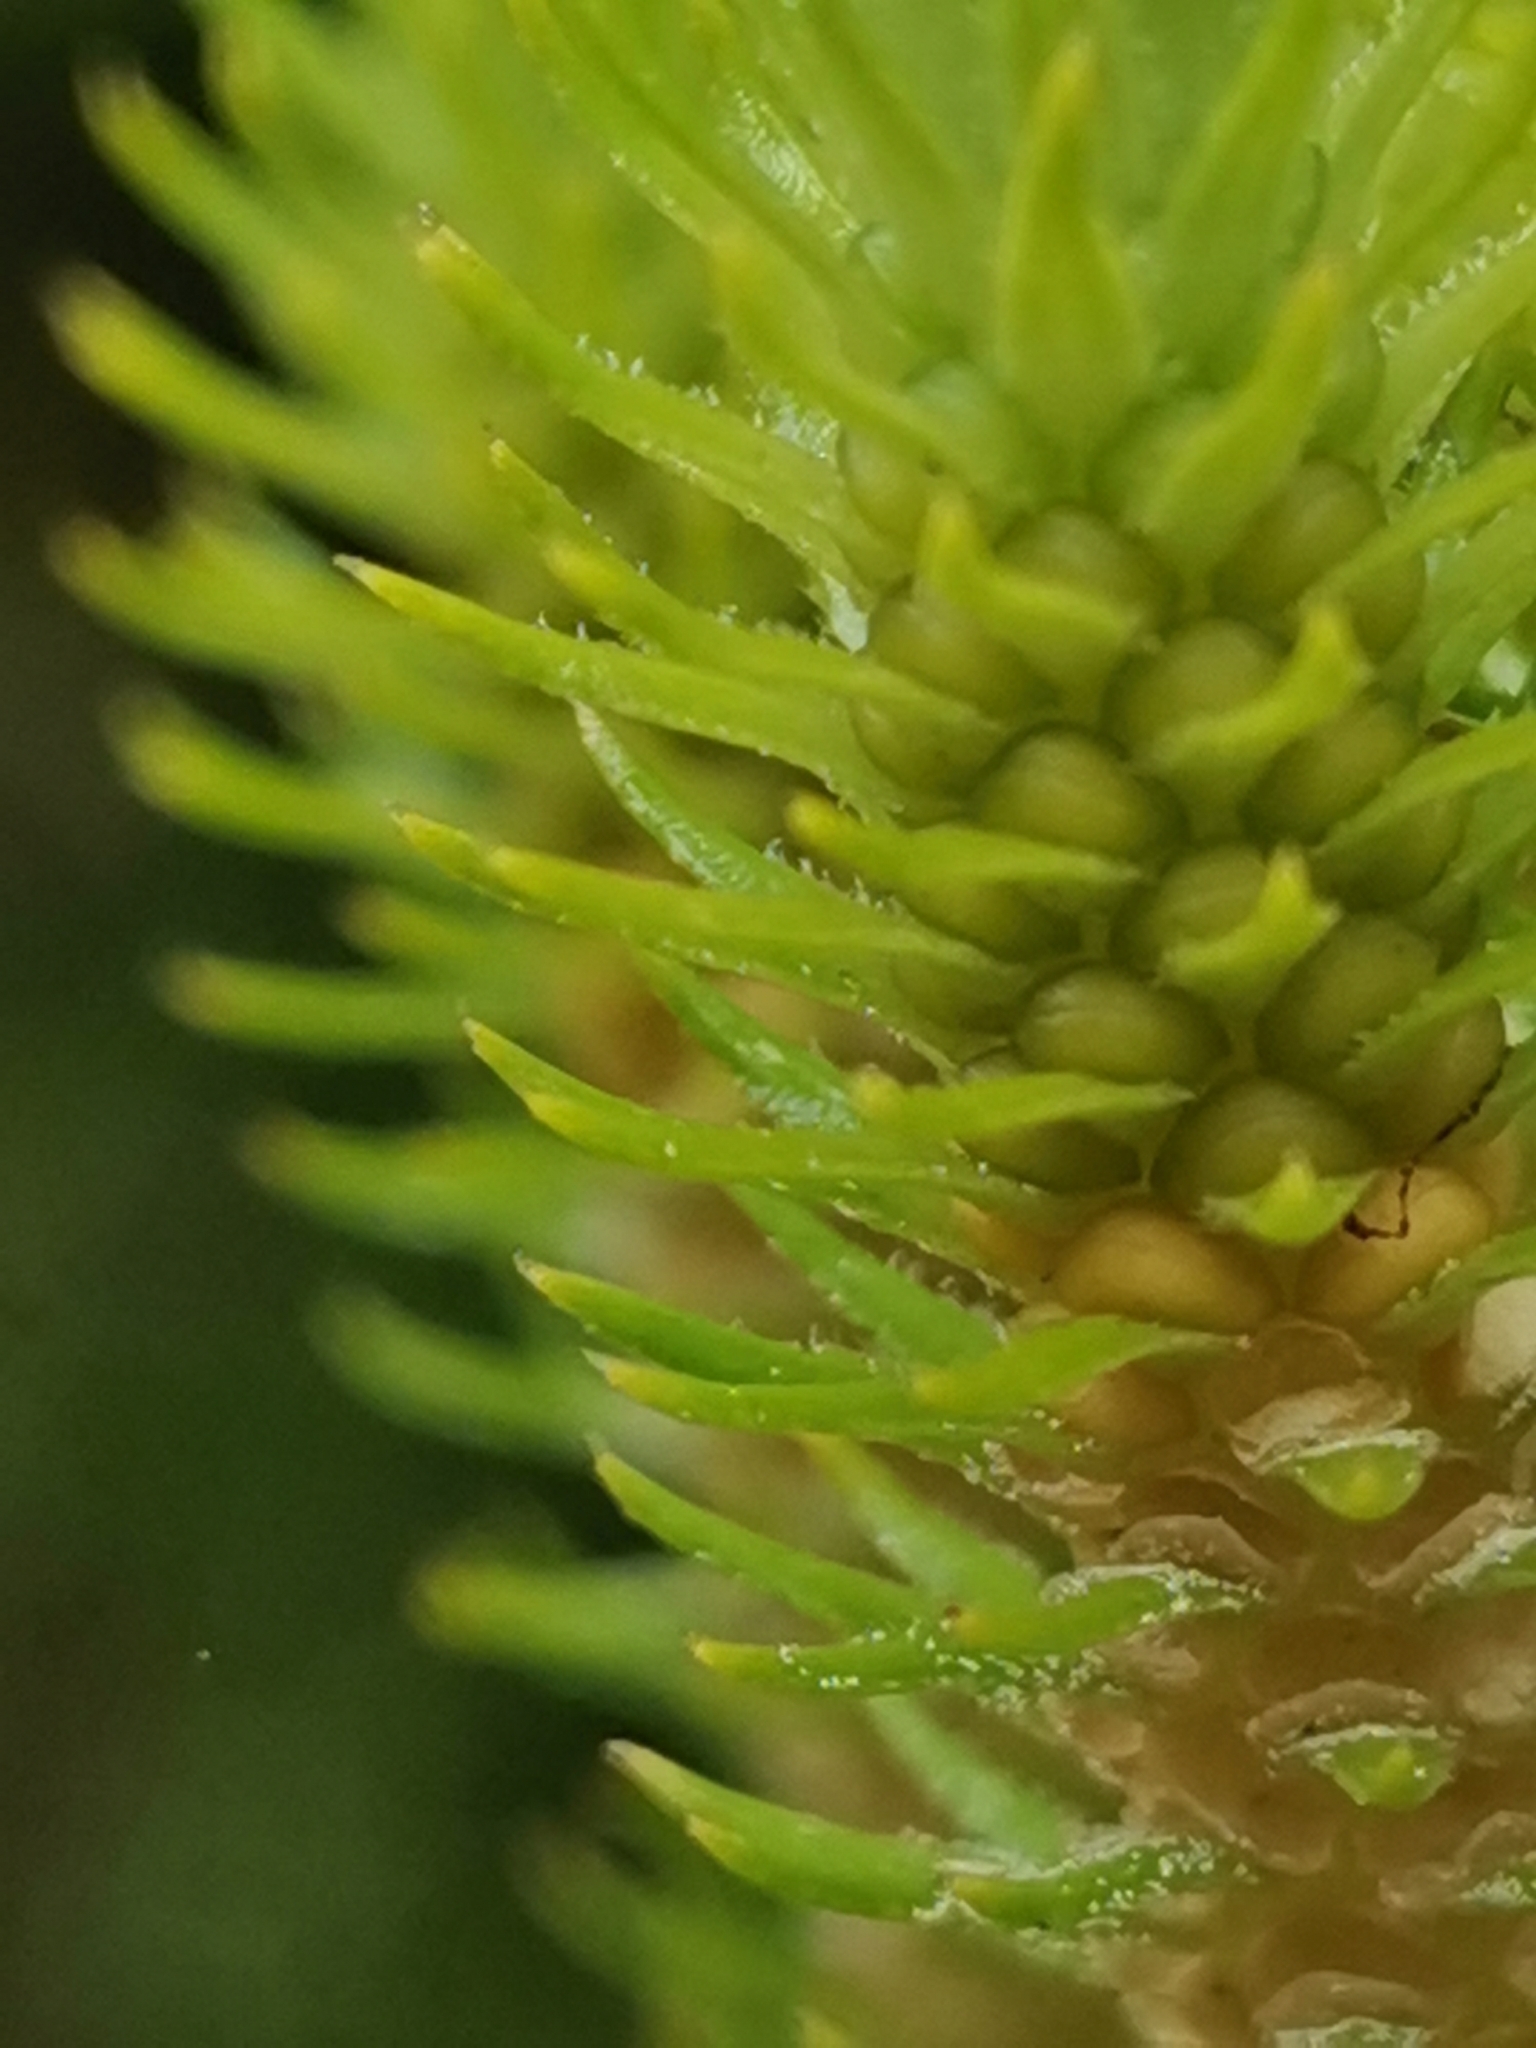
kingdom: Plantae
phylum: Tracheophyta
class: Lycopodiopsida
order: Lycopodiales
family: Lycopodiaceae
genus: Phlegmariurus
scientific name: Phlegmariurus dentatus
